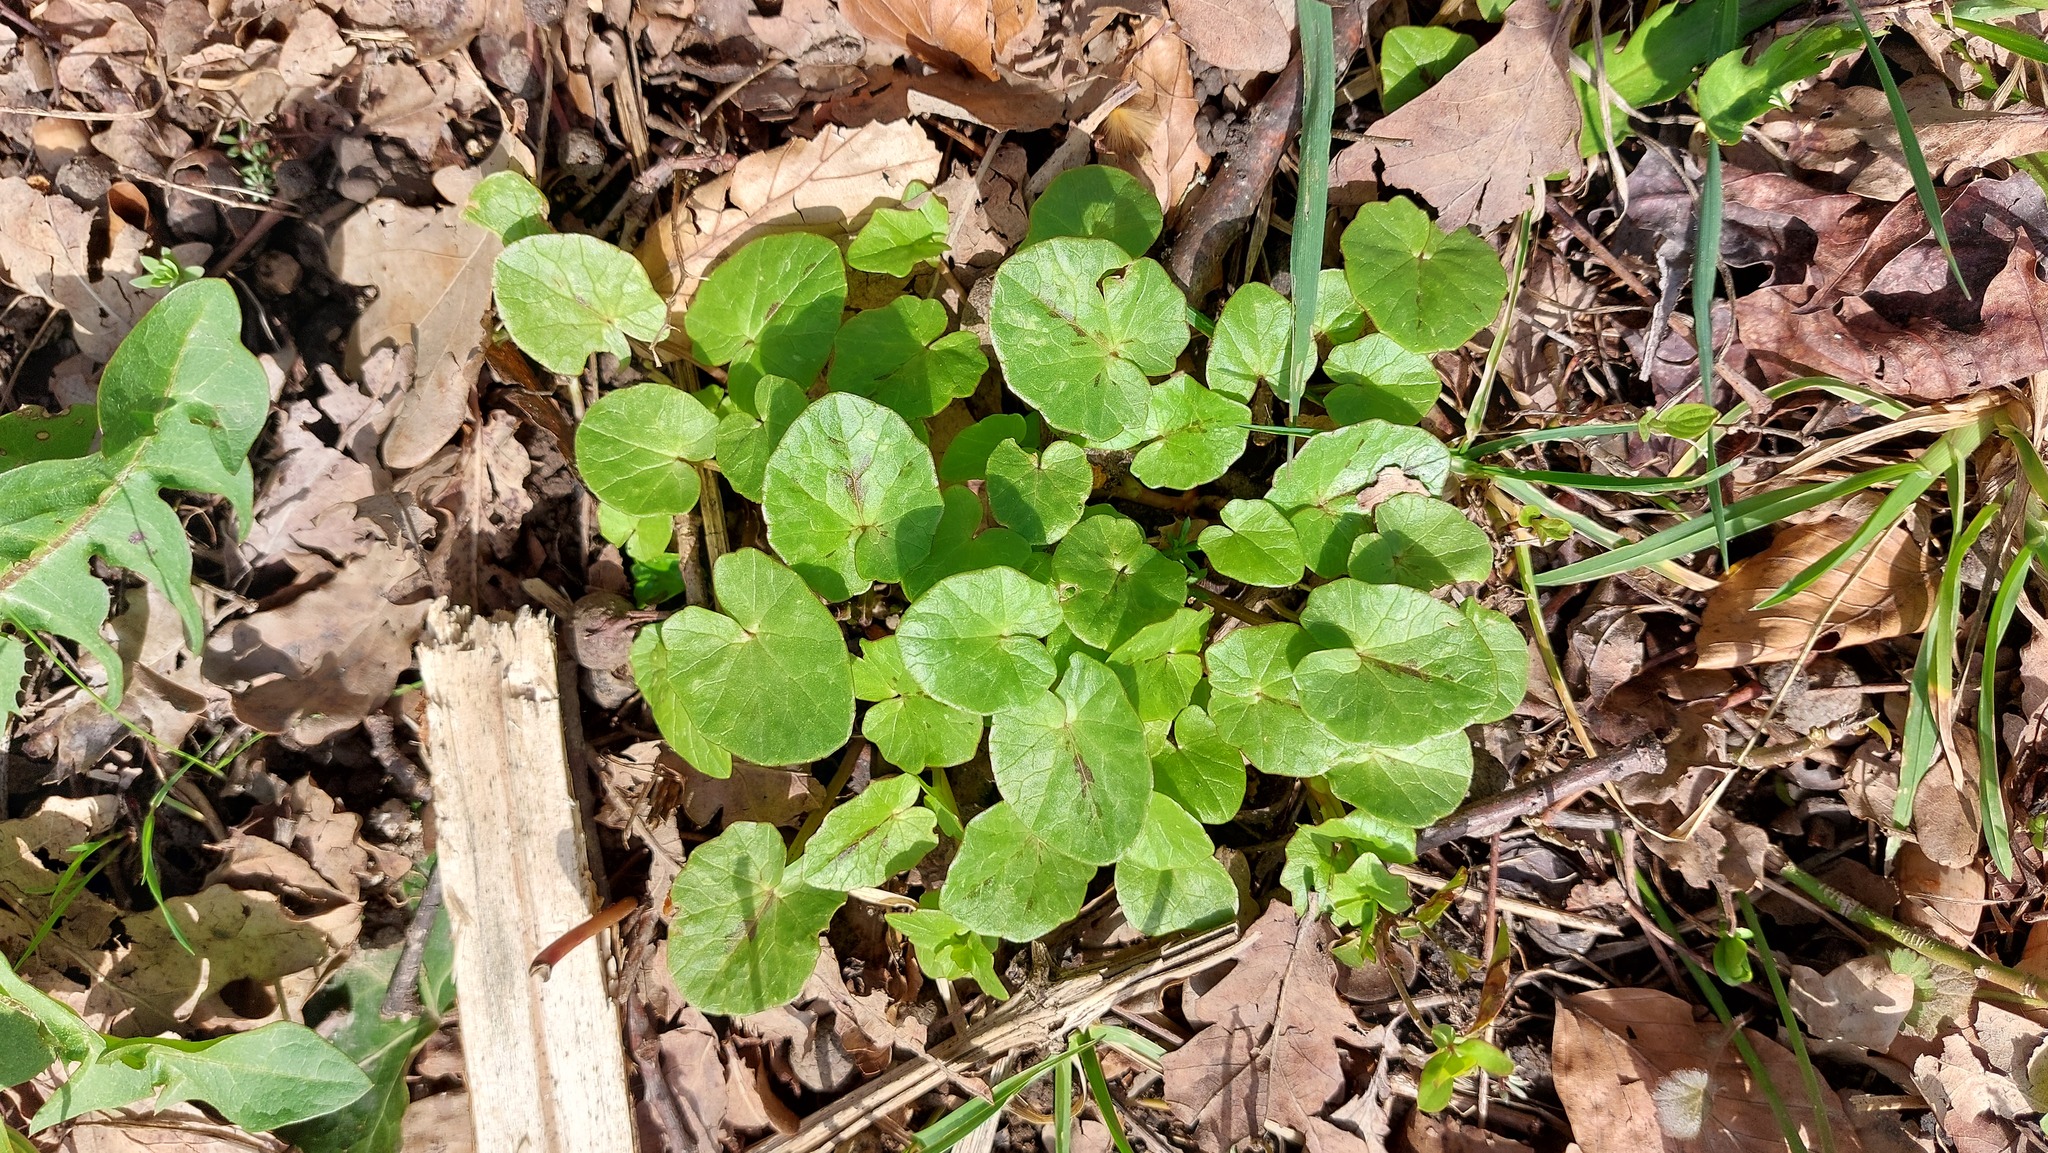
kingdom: Plantae
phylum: Tracheophyta
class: Magnoliopsida
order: Ranunculales
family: Ranunculaceae
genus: Ficaria
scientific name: Ficaria verna
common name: Lesser celandine
